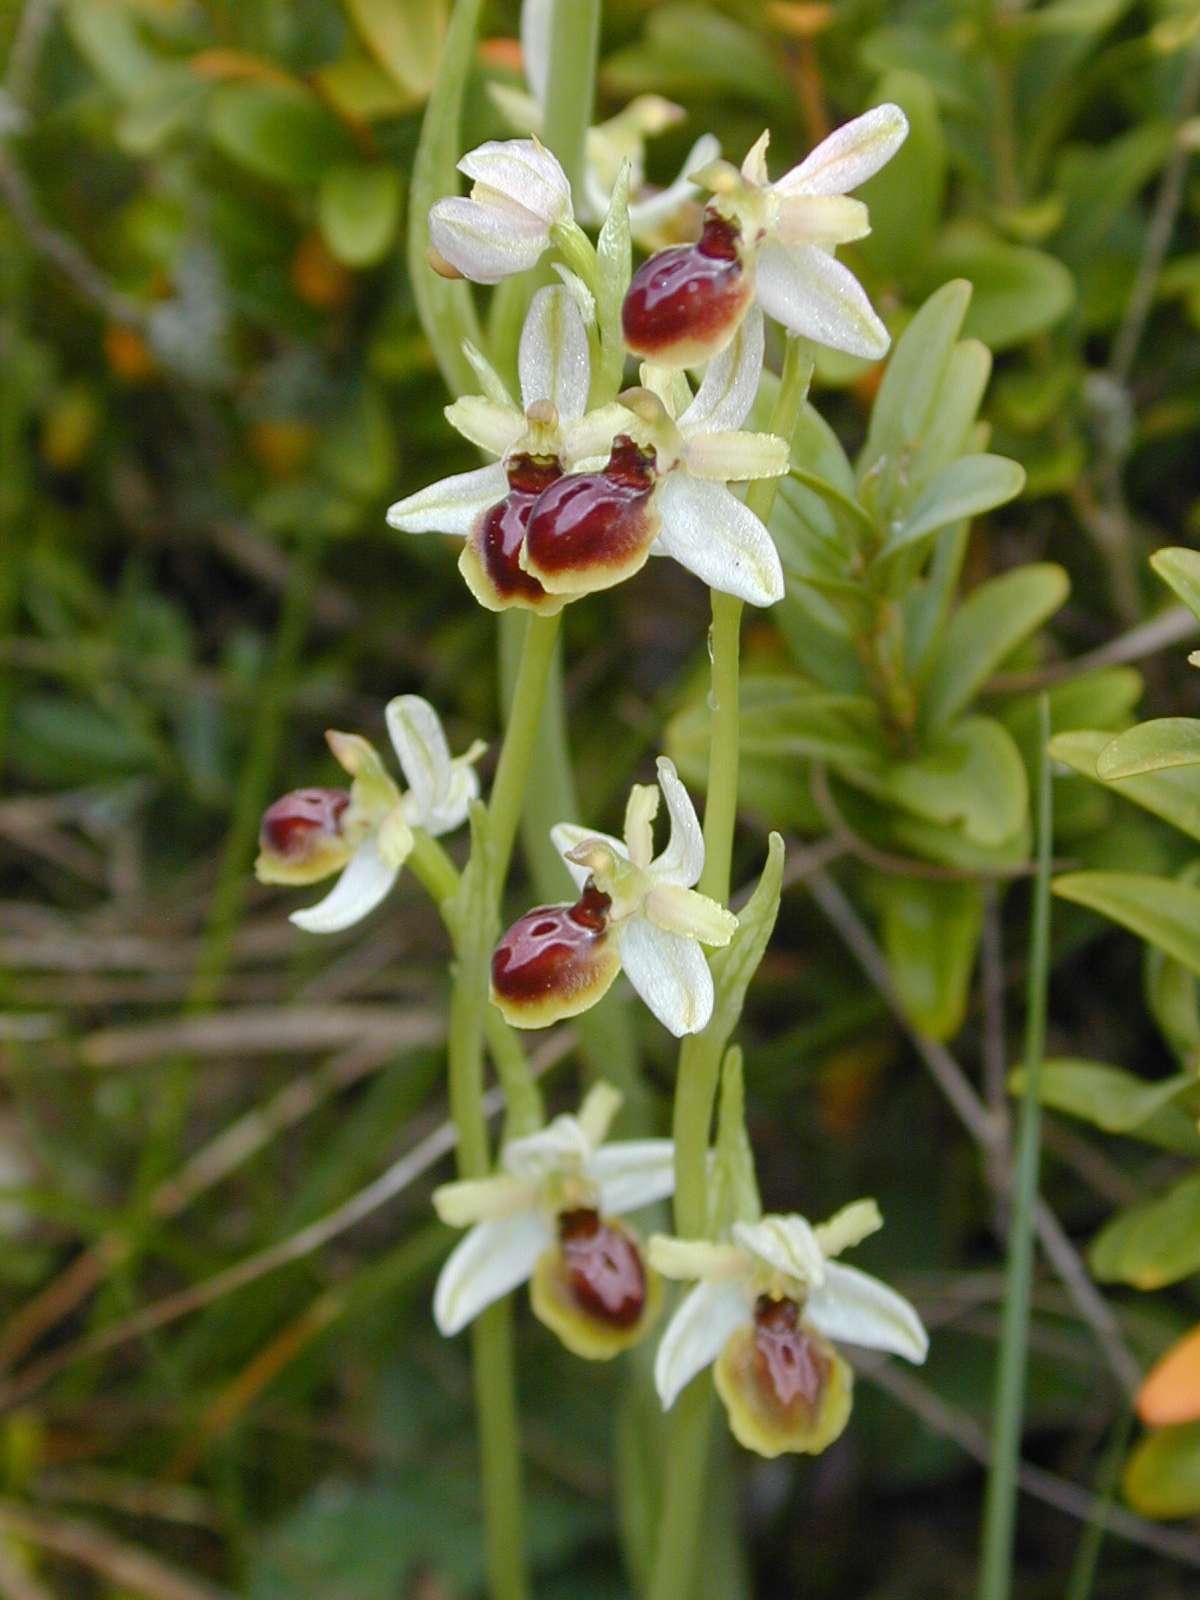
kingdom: Plantae
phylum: Tracheophyta
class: Liliopsida
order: Asparagales
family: Orchidaceae
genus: Ophrys
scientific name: Ophrys sphegodes
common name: Early spider-orchid
